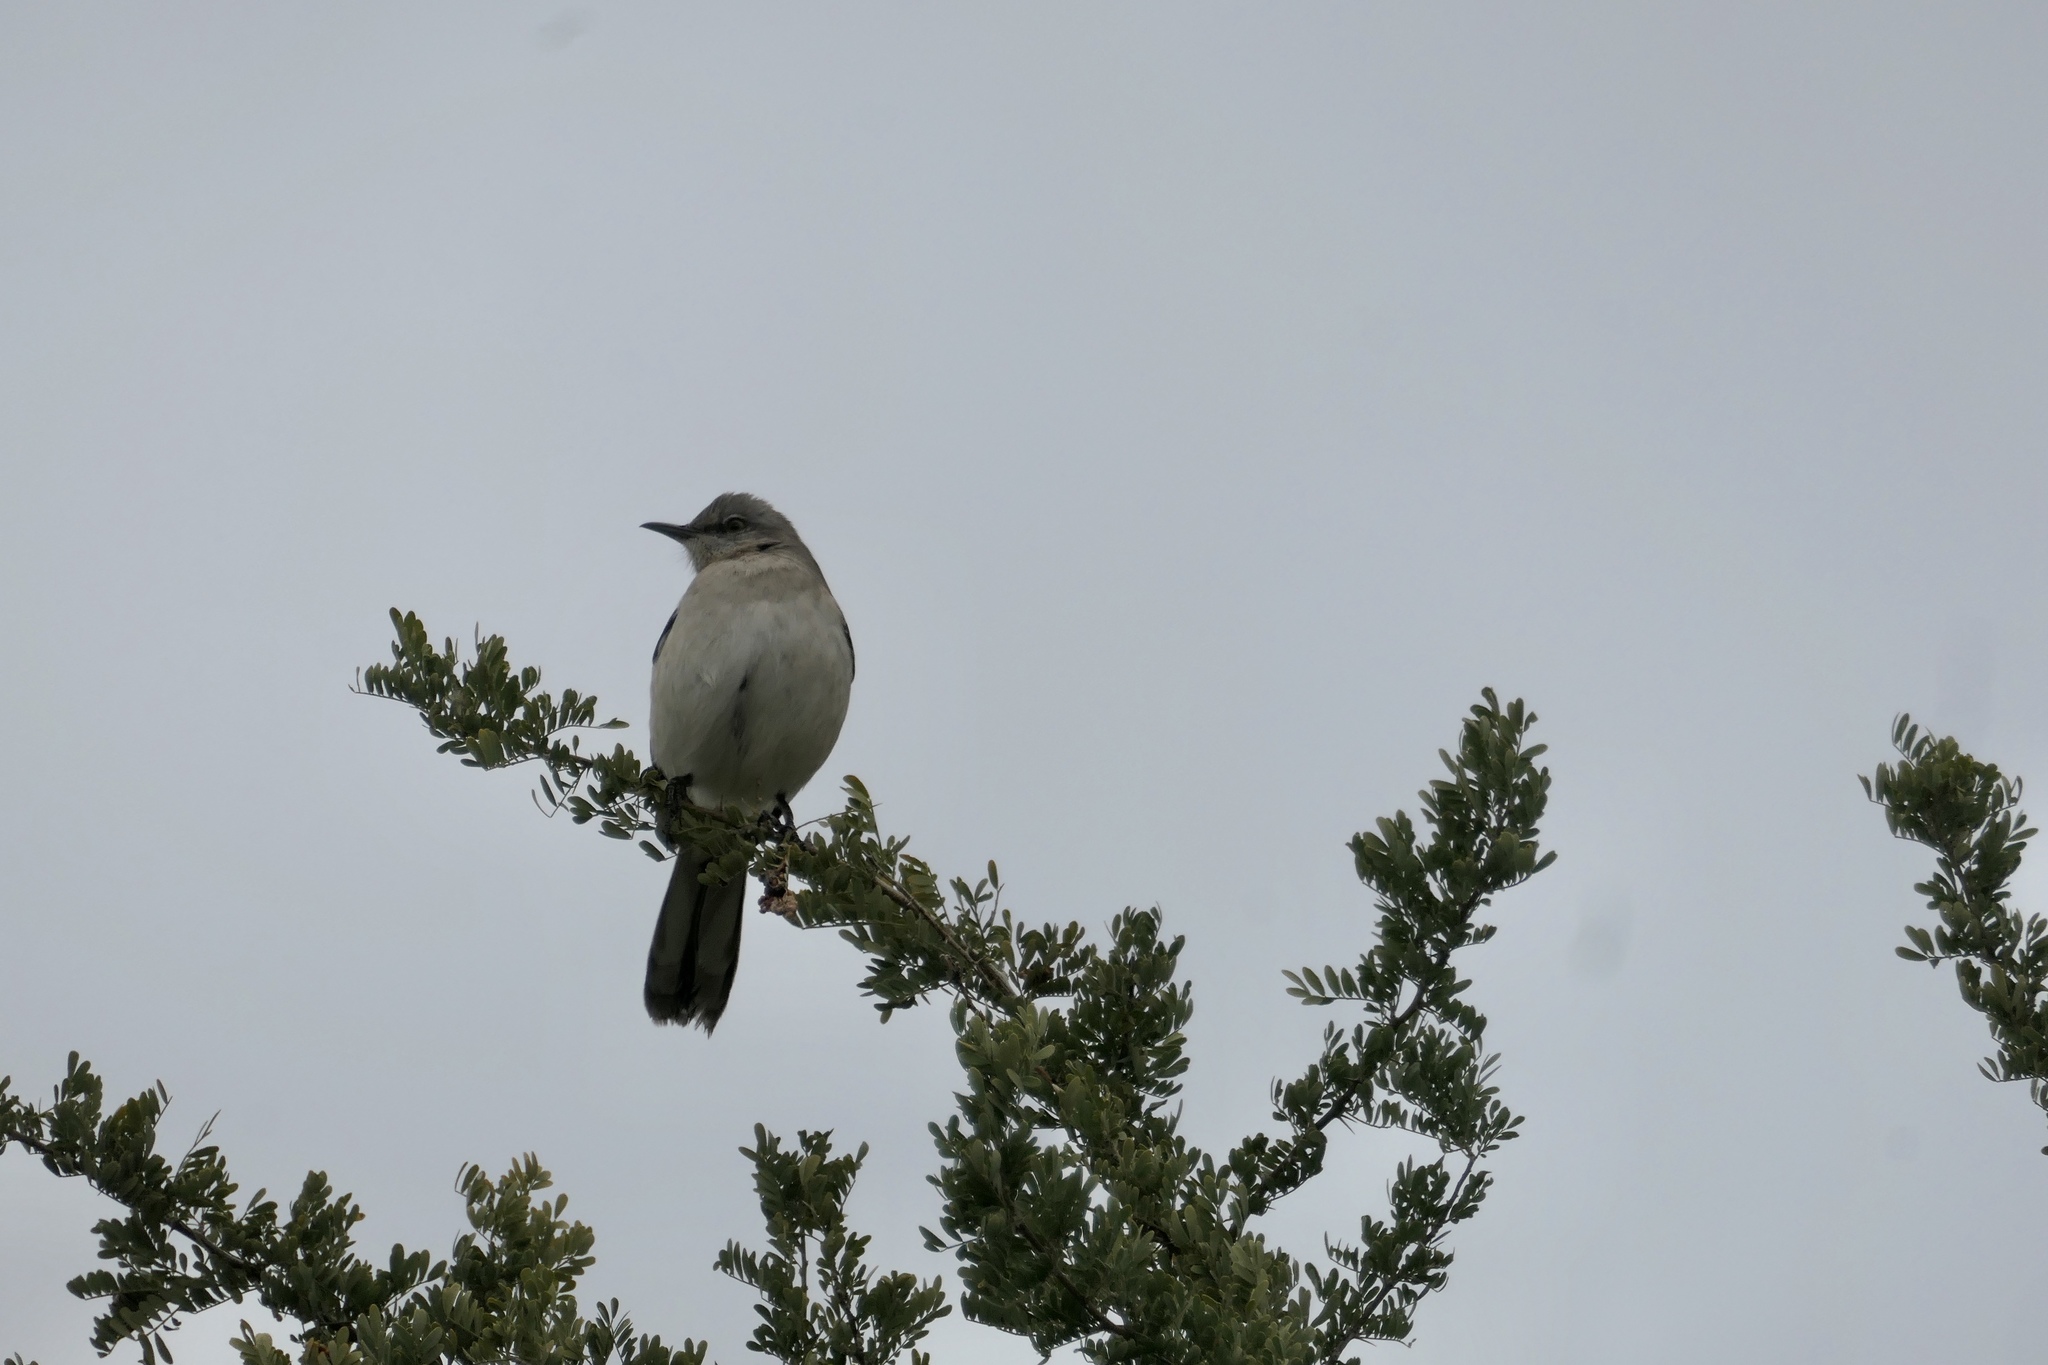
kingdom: Animalia
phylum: Chordata
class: Aves
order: Passeriformes
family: Mimidae
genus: Mimus
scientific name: Mimus polyglottos
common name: Northern mockingbird
